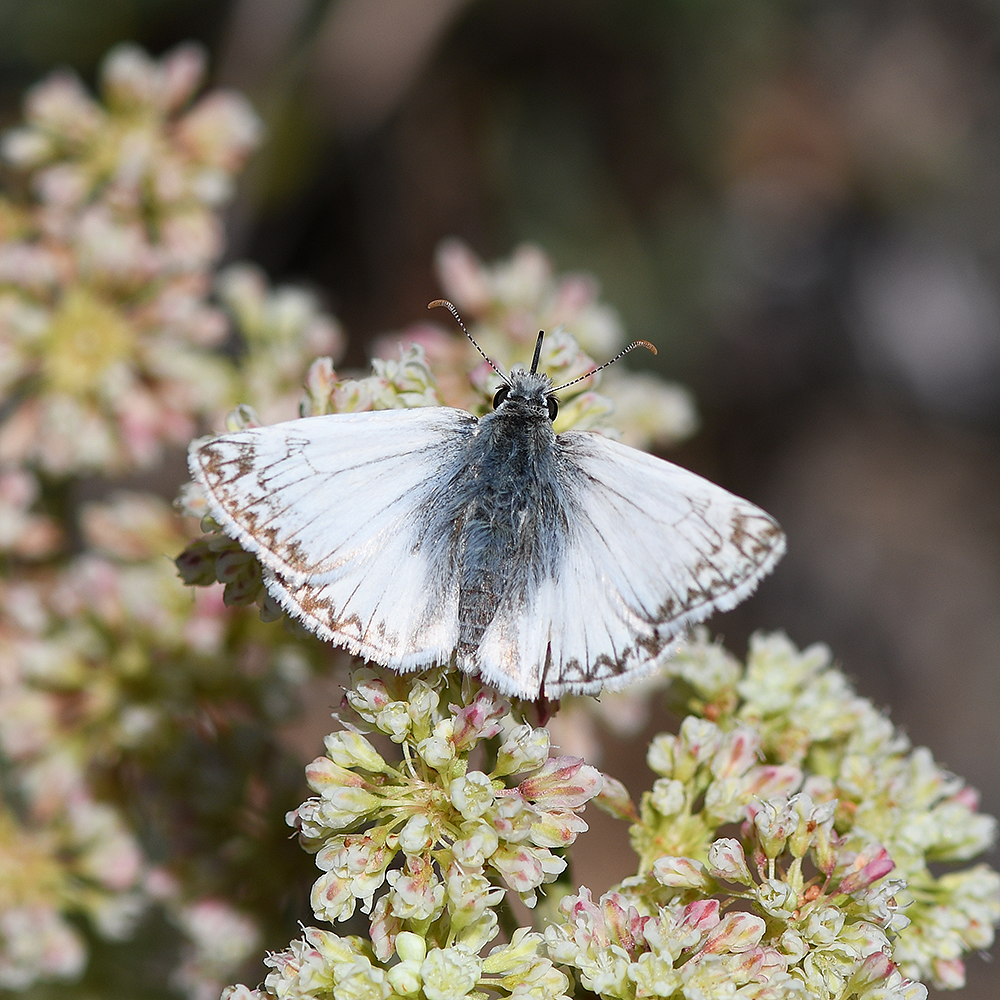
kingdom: Animalia
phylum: Arthropoda
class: Insecta
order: Lepidoptera
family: Hesperiidae
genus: Heliopetes
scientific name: Heliopetes ericetorum
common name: Northern white-skipper
